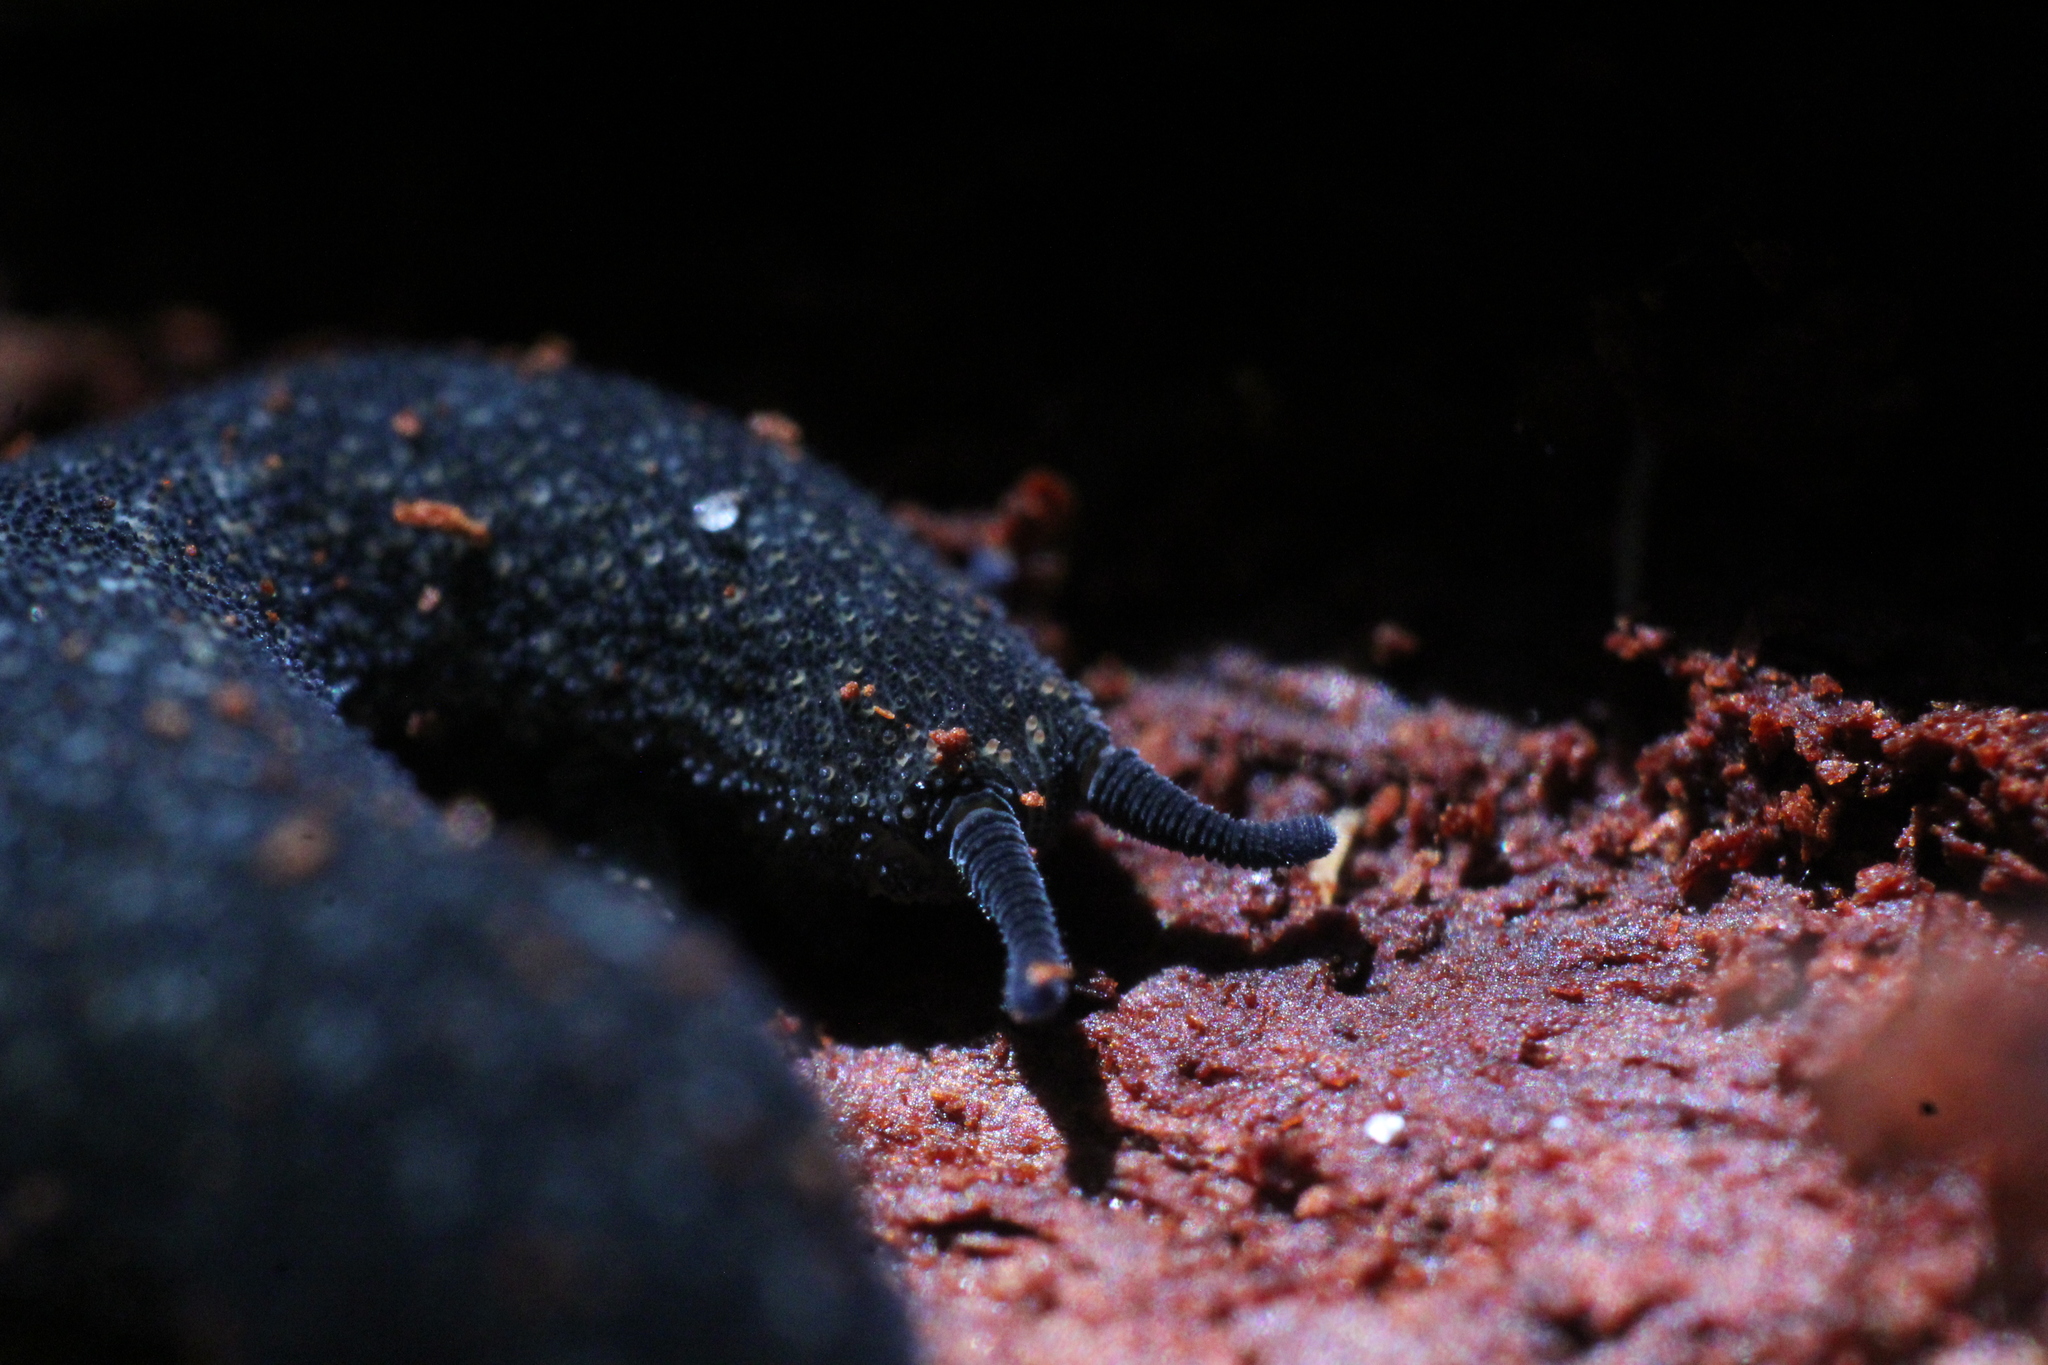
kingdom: Animalia
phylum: Onychophora
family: Peripatopsidae
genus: Kumbadjena
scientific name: Kumbadjena extrema
